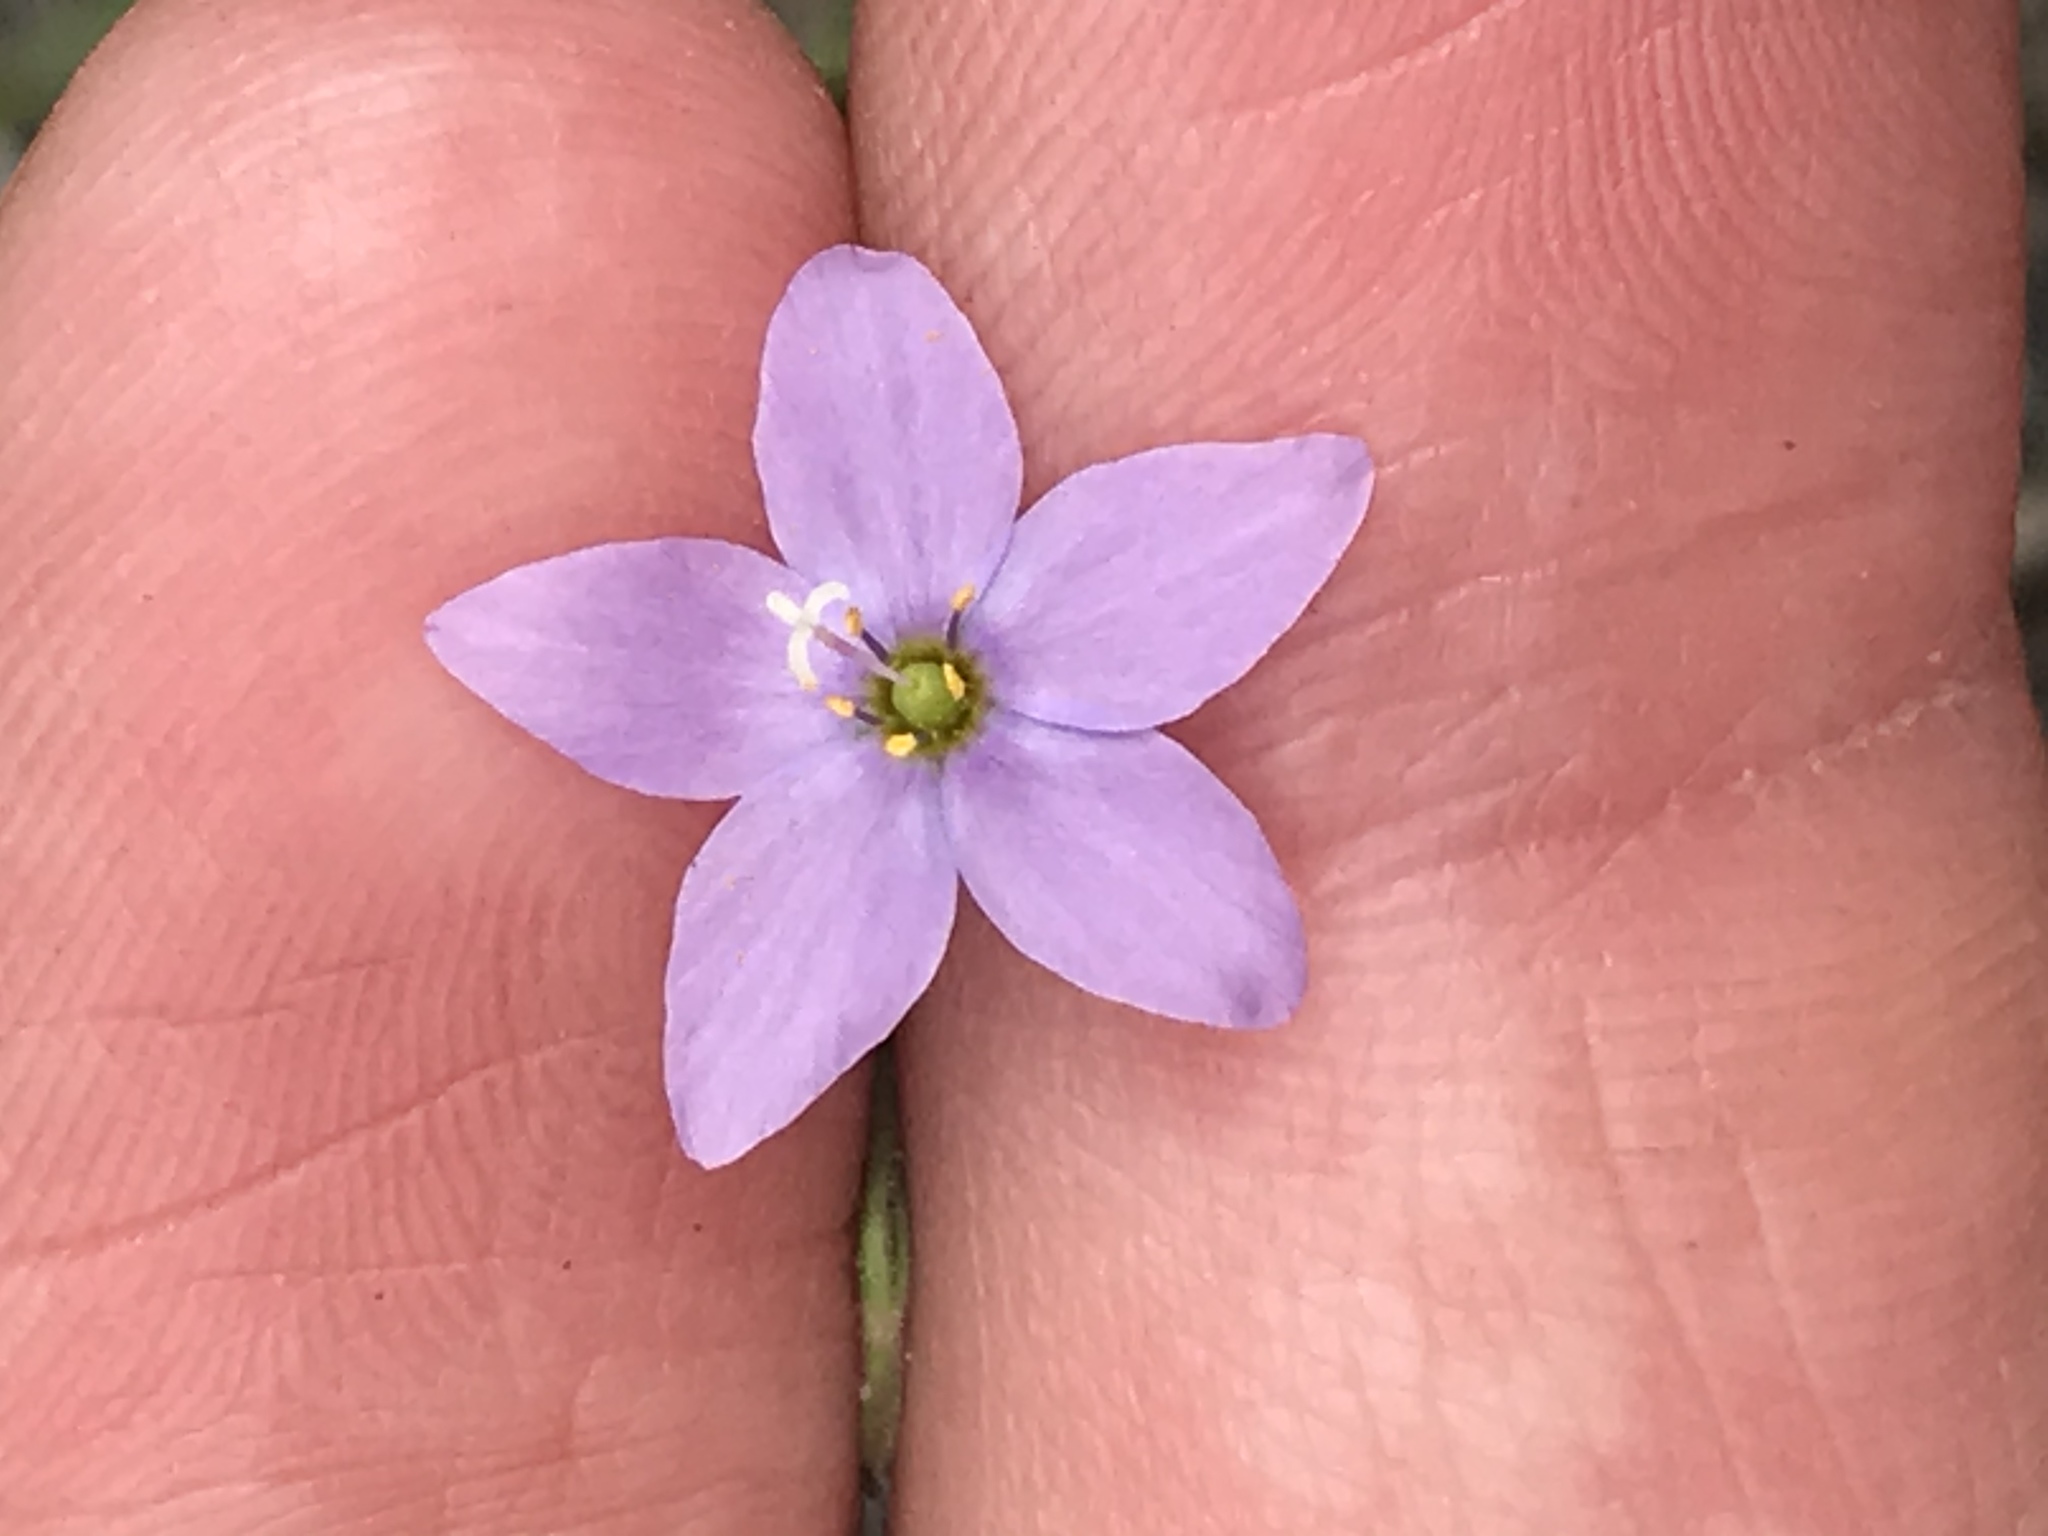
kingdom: Plantae
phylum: Tracheophyta
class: Magnoliopsida
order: Ericales
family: Polemoniaceae
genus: Giliastrum
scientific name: Giliastrum incisum
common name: Splitleaf gilia
